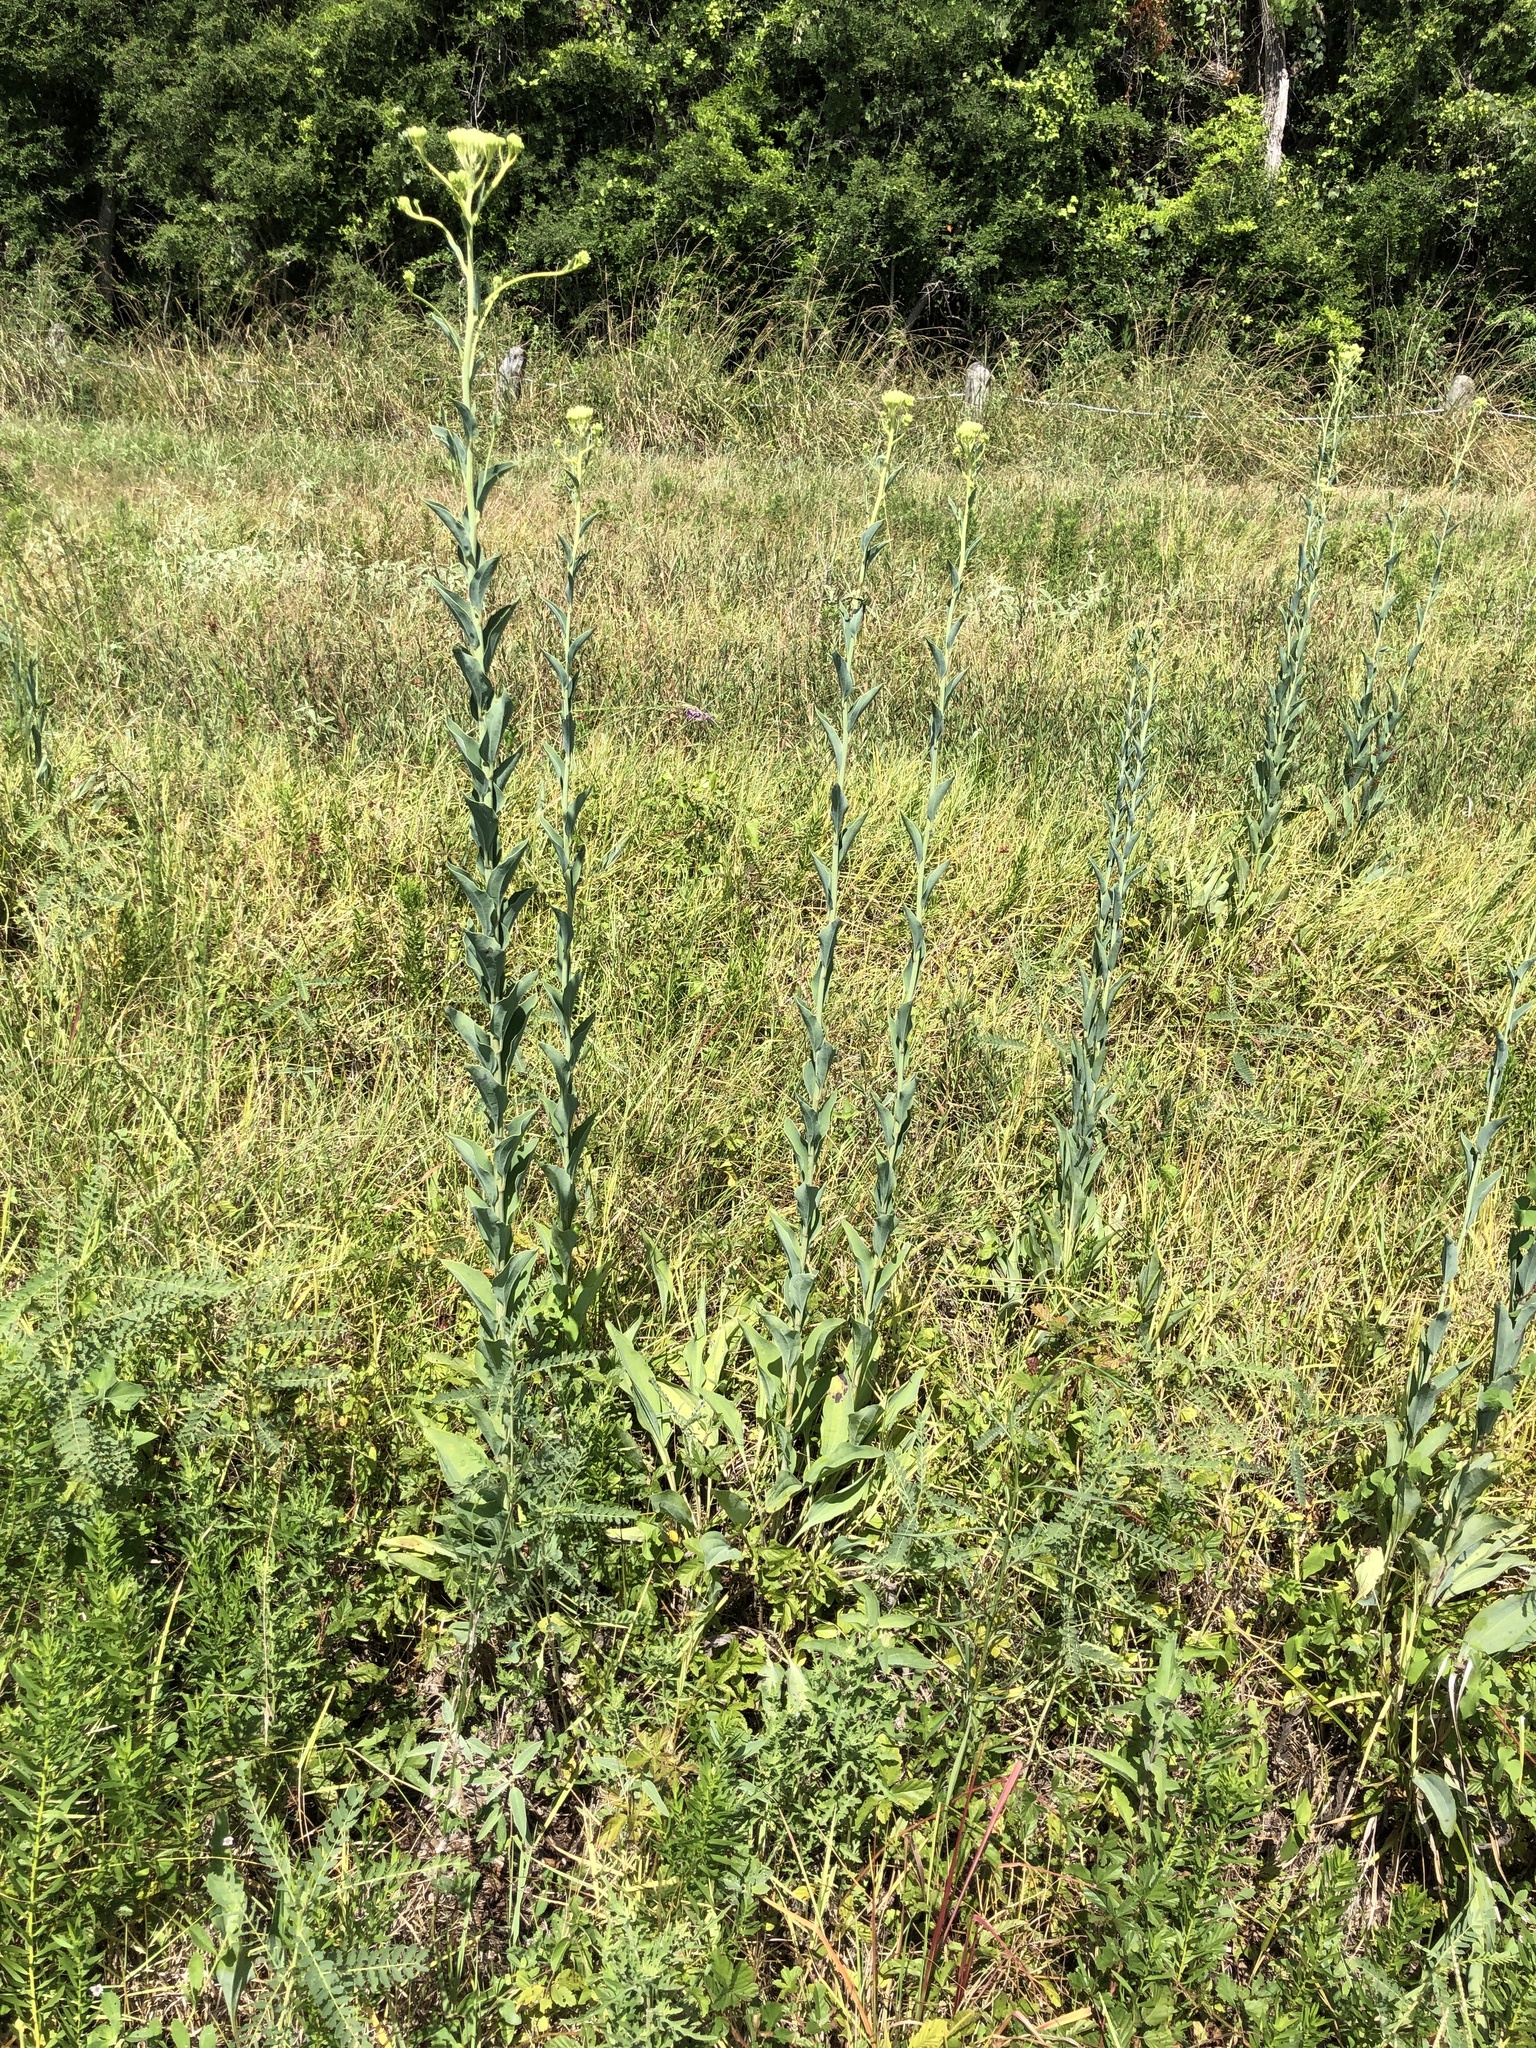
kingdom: Plantae
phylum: Tracheophyta
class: Magnoliopsida
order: Asterales
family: Asteraceae
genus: Arnoglossum
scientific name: Arnoglossum ovatum
